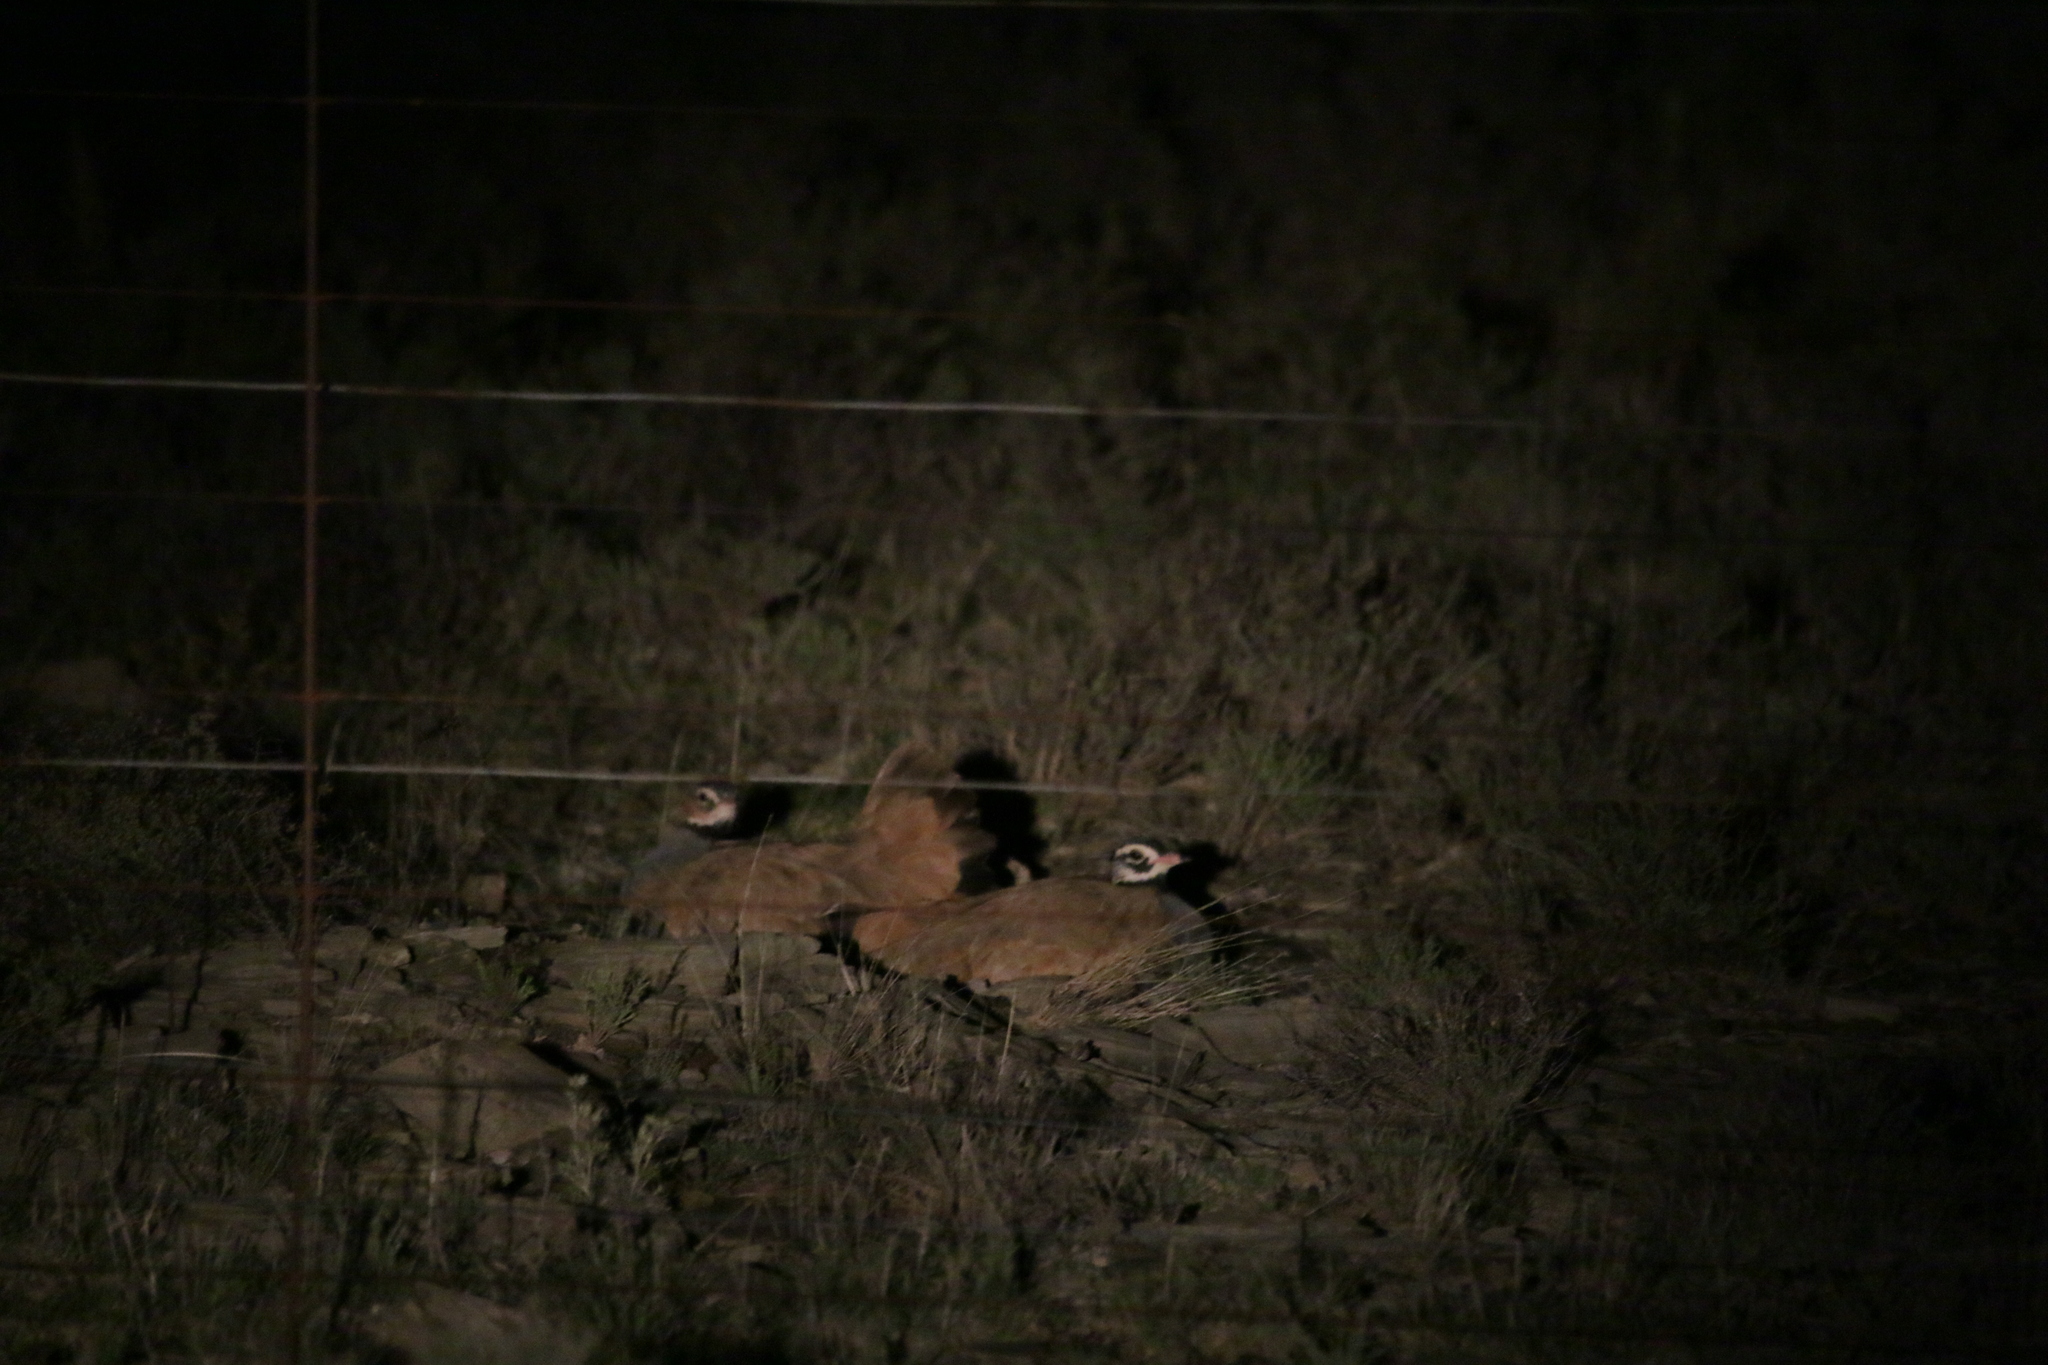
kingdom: Animalia
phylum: Chordata
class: Aves
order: Otidiformes
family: Otididae
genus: Eupodotis
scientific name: Eupodotis caerulescens
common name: Blue korhaan
